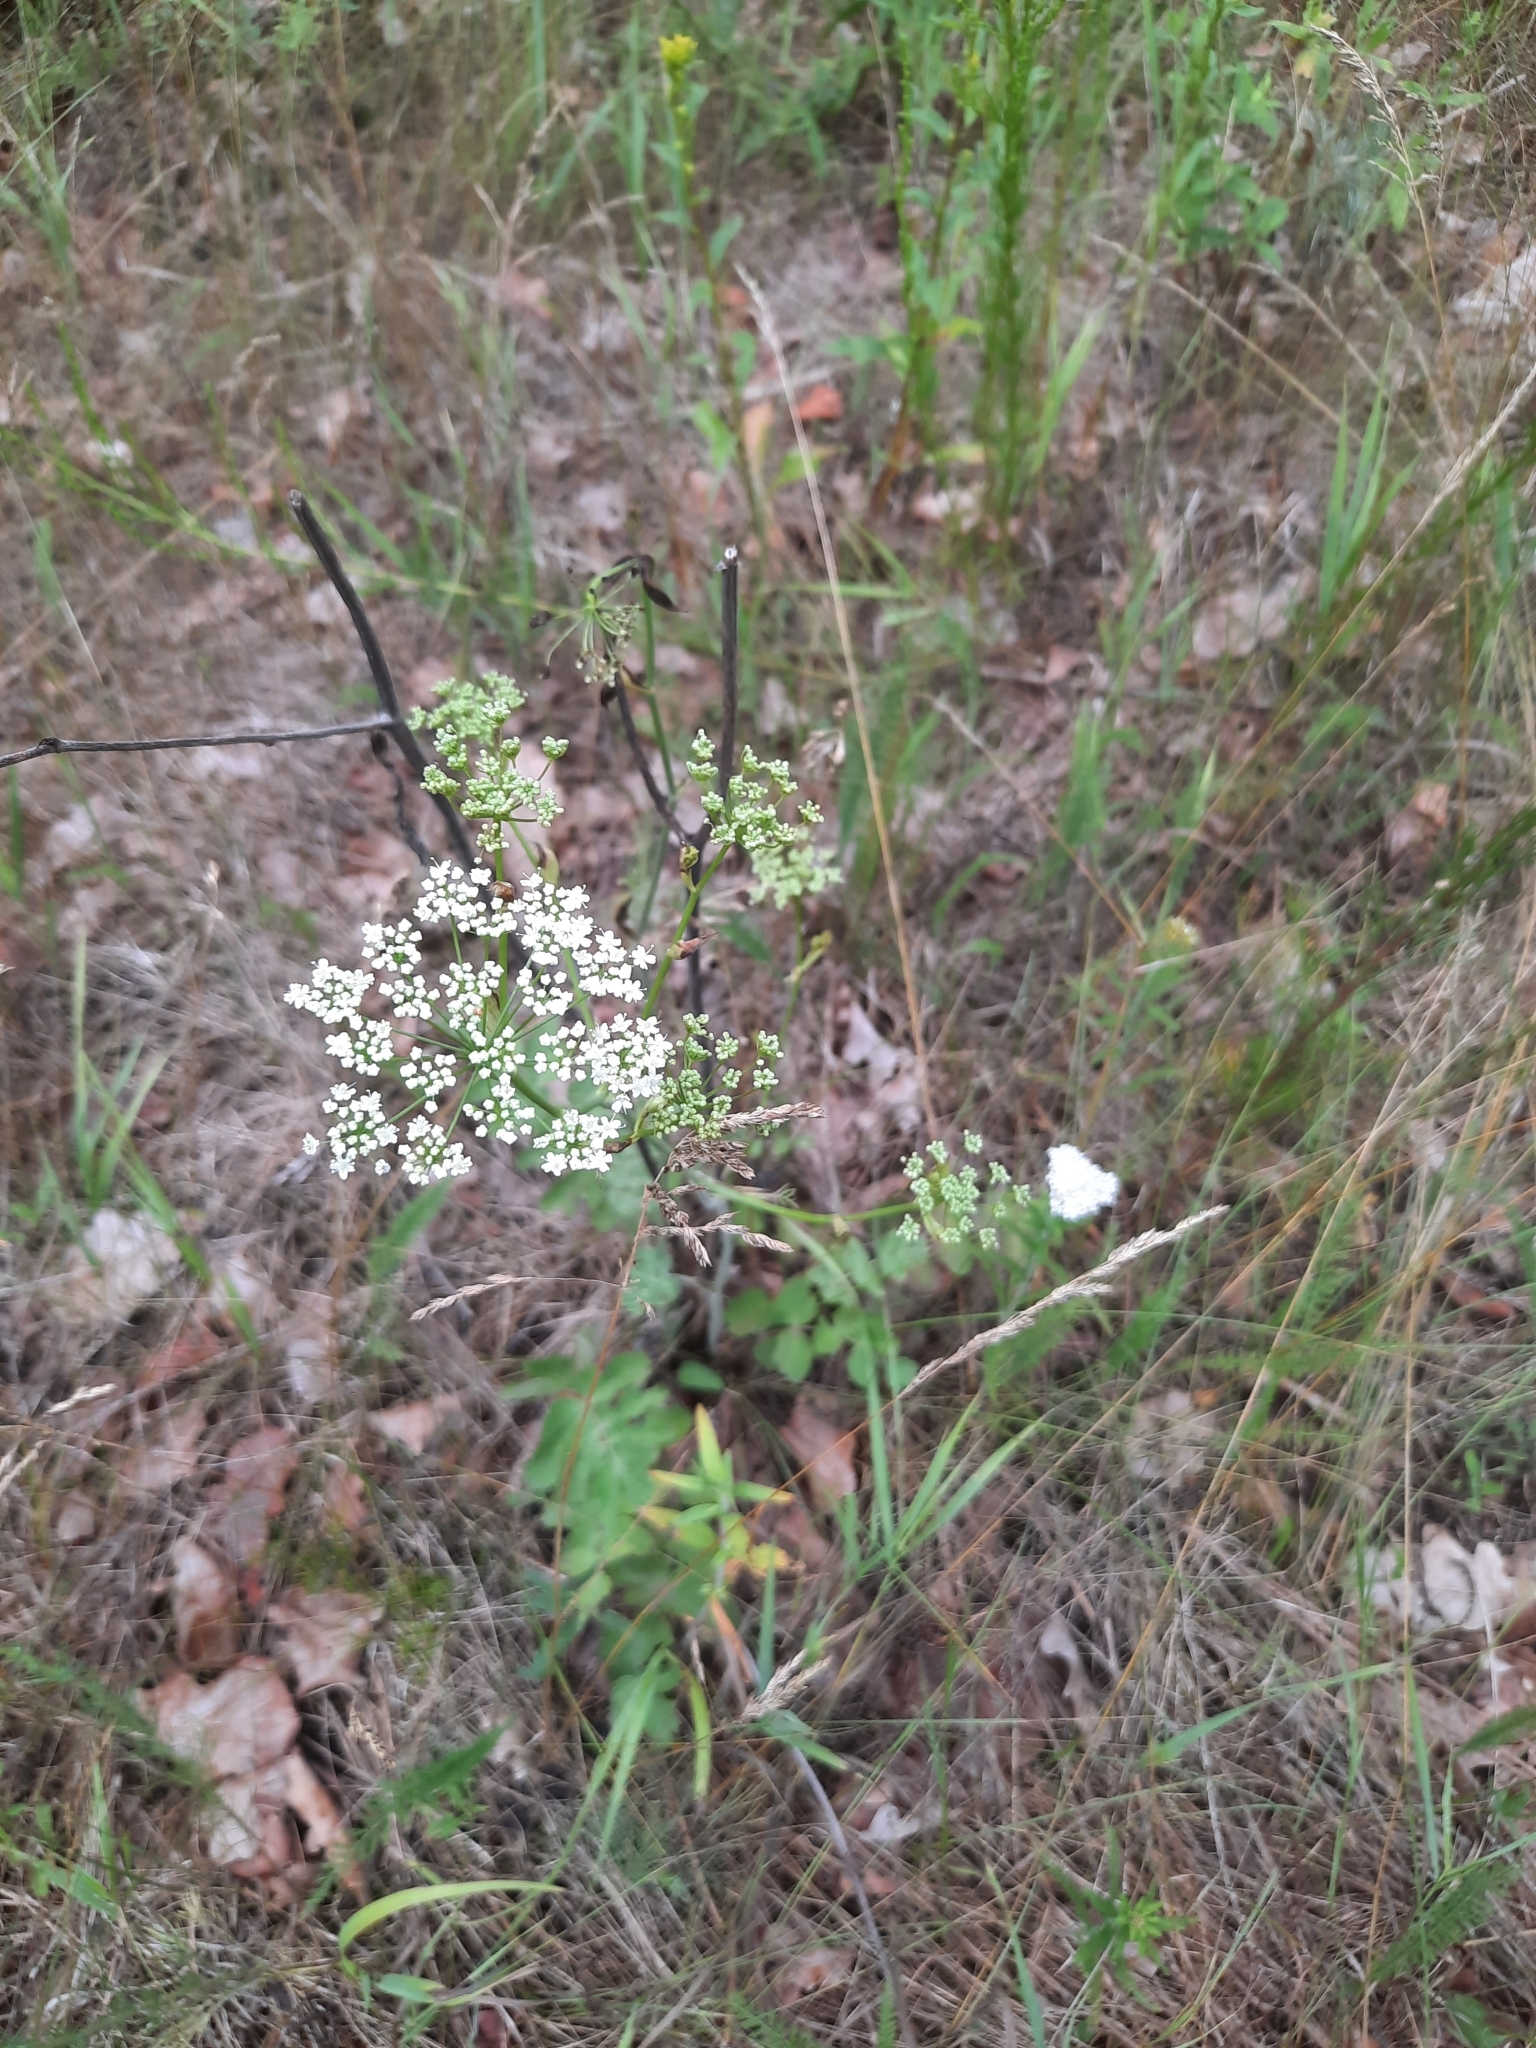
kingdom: Plantae
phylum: Tracheophyta
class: Magnoliopsida
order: Apiales
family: Apiaceae
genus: Pimpinella
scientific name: Pimpinella saxifraga
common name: Burnet-saxifrage
